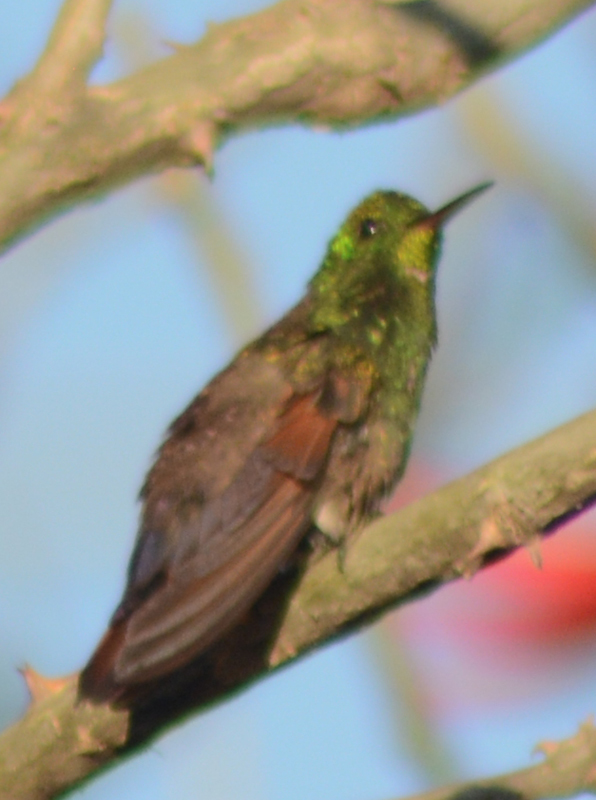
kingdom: Animalia
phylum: Chordata
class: Aves
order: Apodiformes
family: Trochilidae
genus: Saucerottia
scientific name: Saucerottia beryllina
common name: Berylline hummingbird
